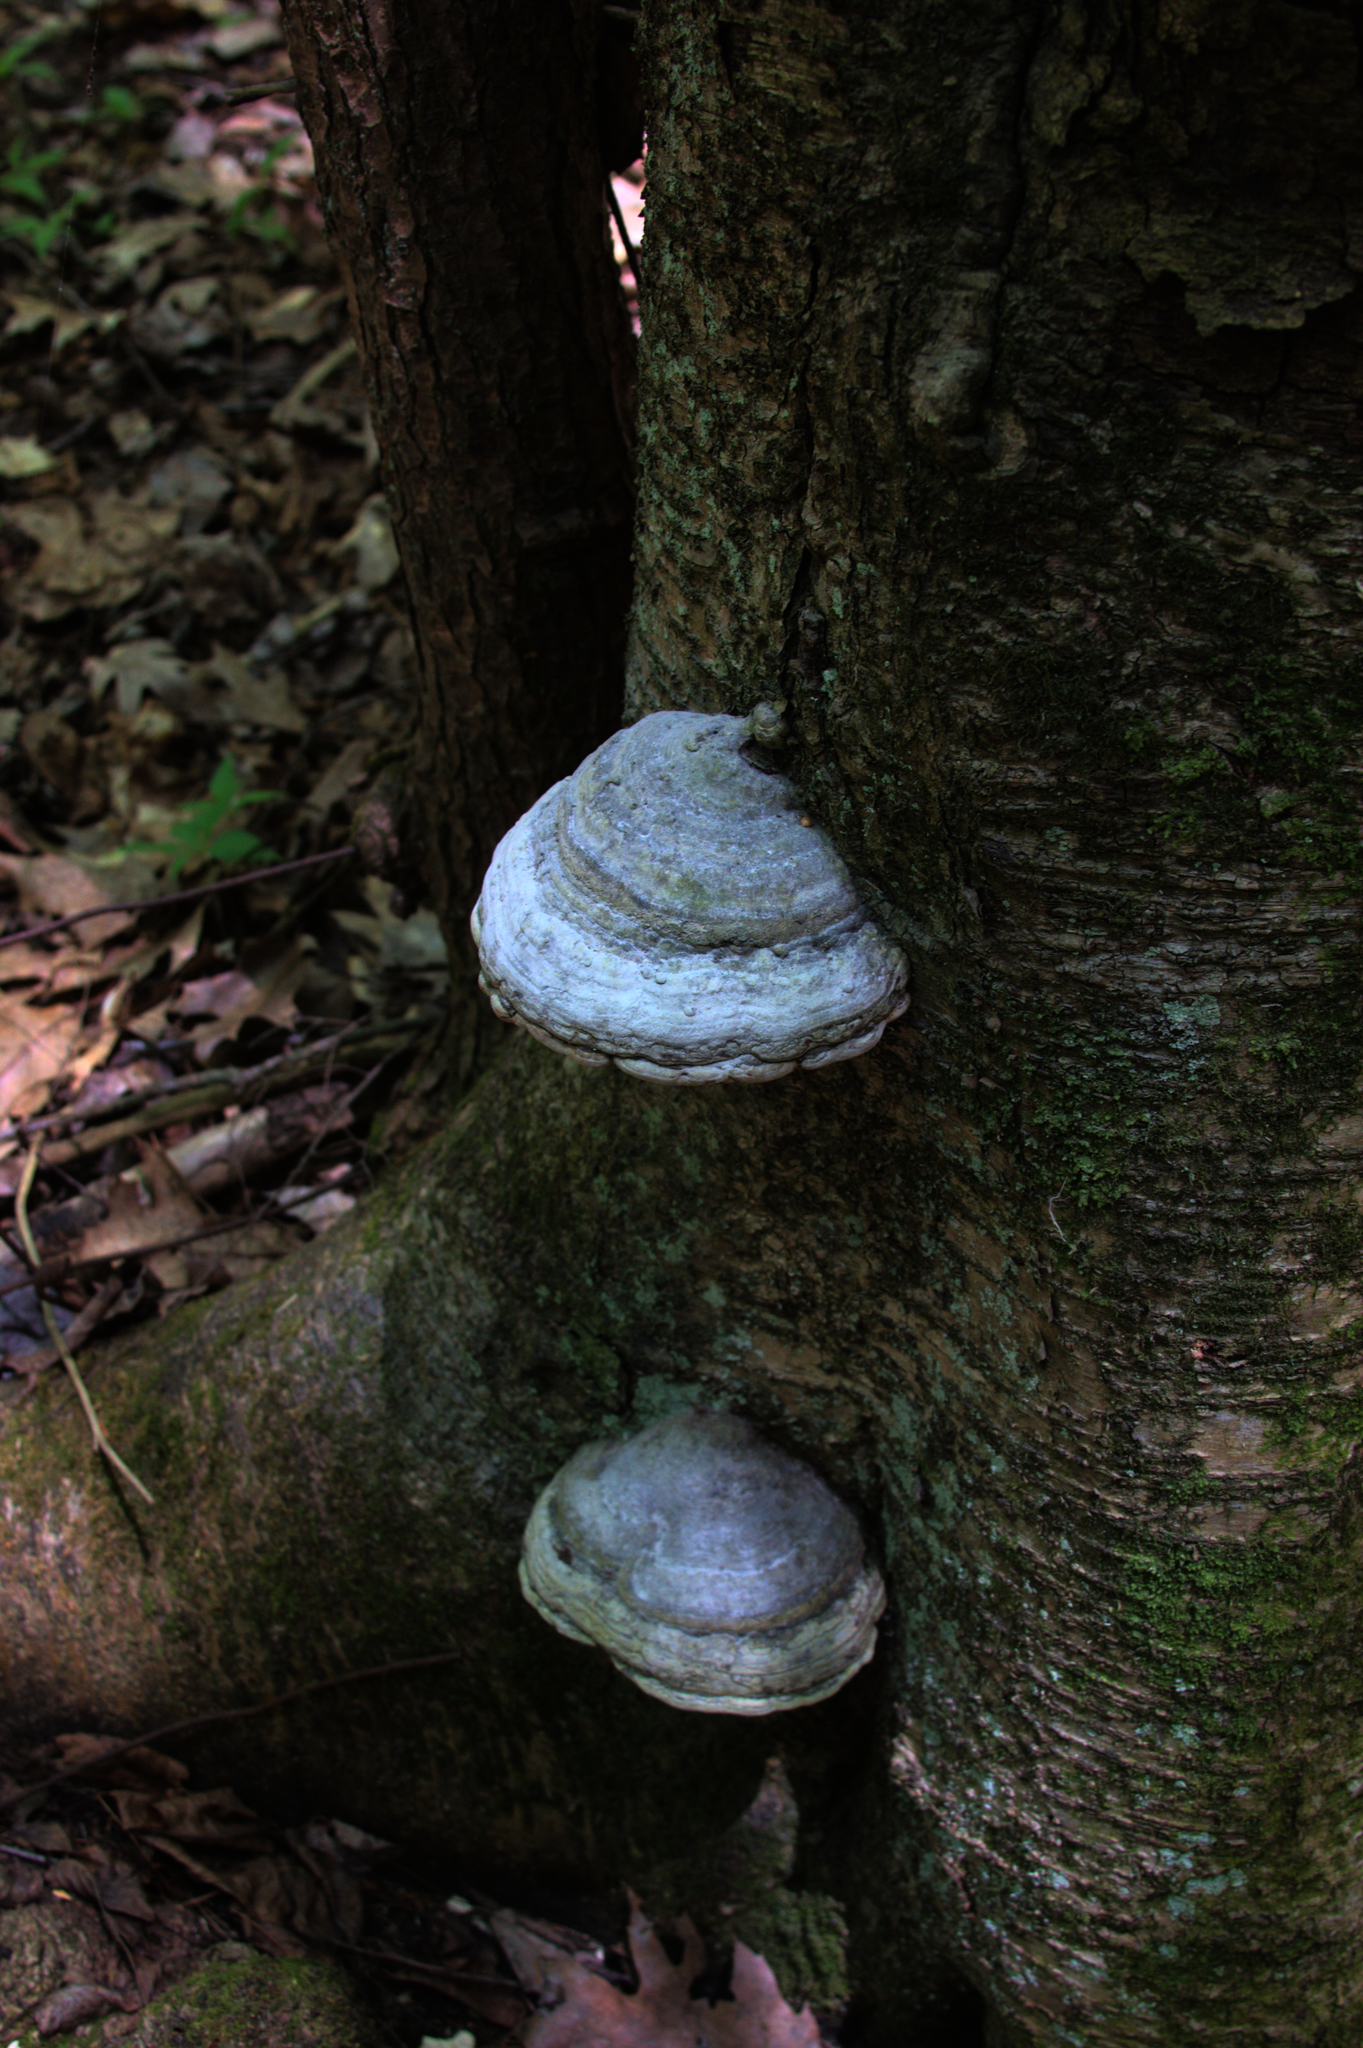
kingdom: Fungi
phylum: Basidiomycota
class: Agaricomycetes
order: Polyporales
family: Polyporaceae
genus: Fomes
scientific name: Fomes fomentarius
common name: Hoof fungus
